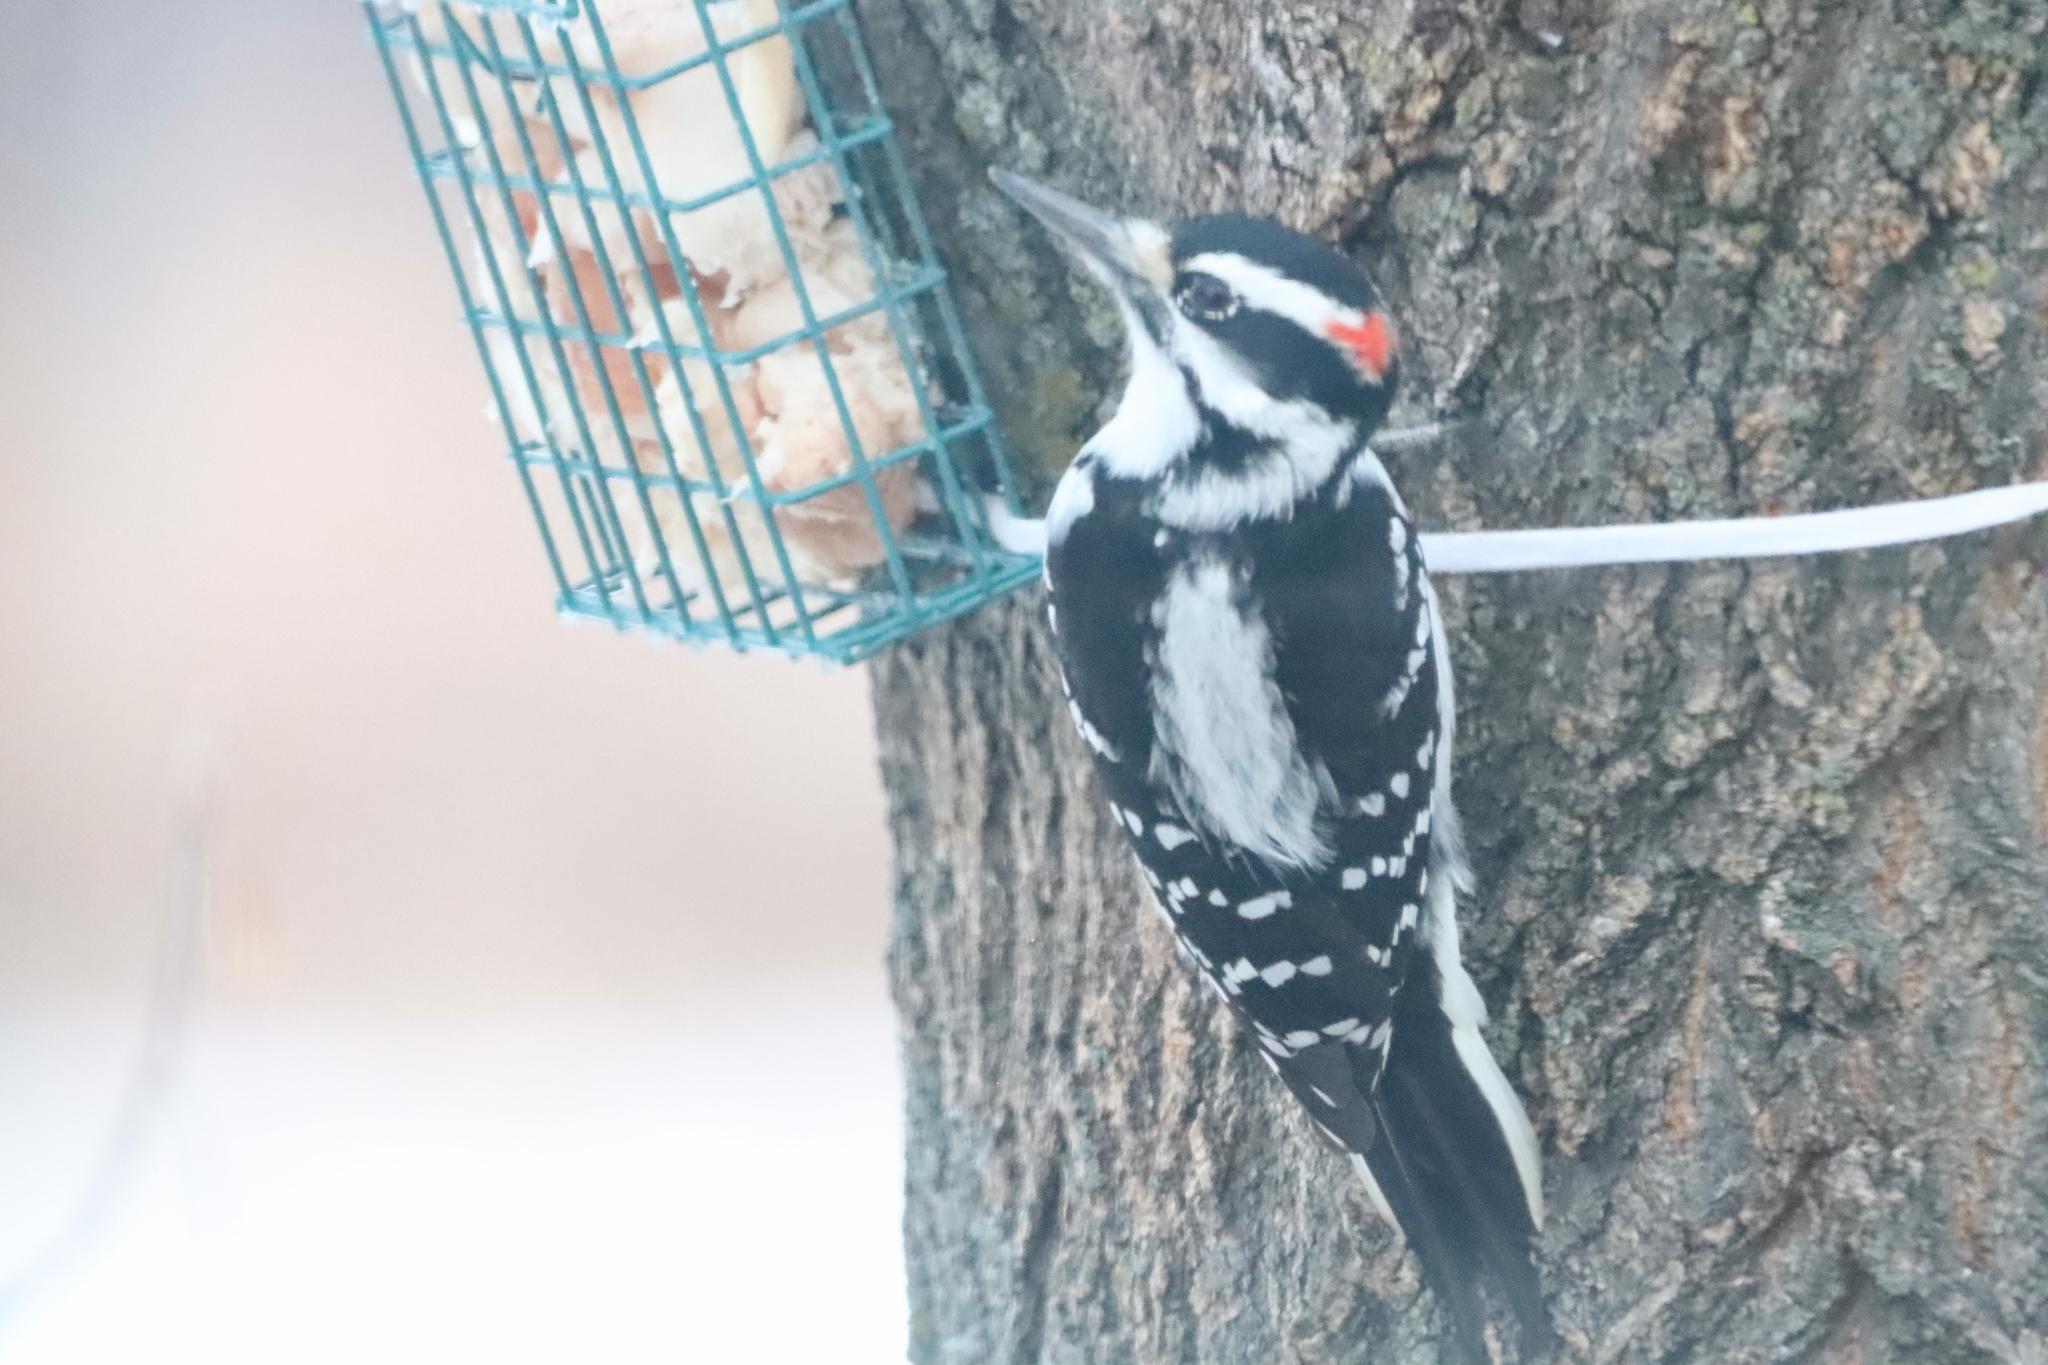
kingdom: Animalia
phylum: Chordata
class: Aves
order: Piciformes
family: Picidae
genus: Leuconotopicus
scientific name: Leuconotopicus villosus
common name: Hairy woodpecker
